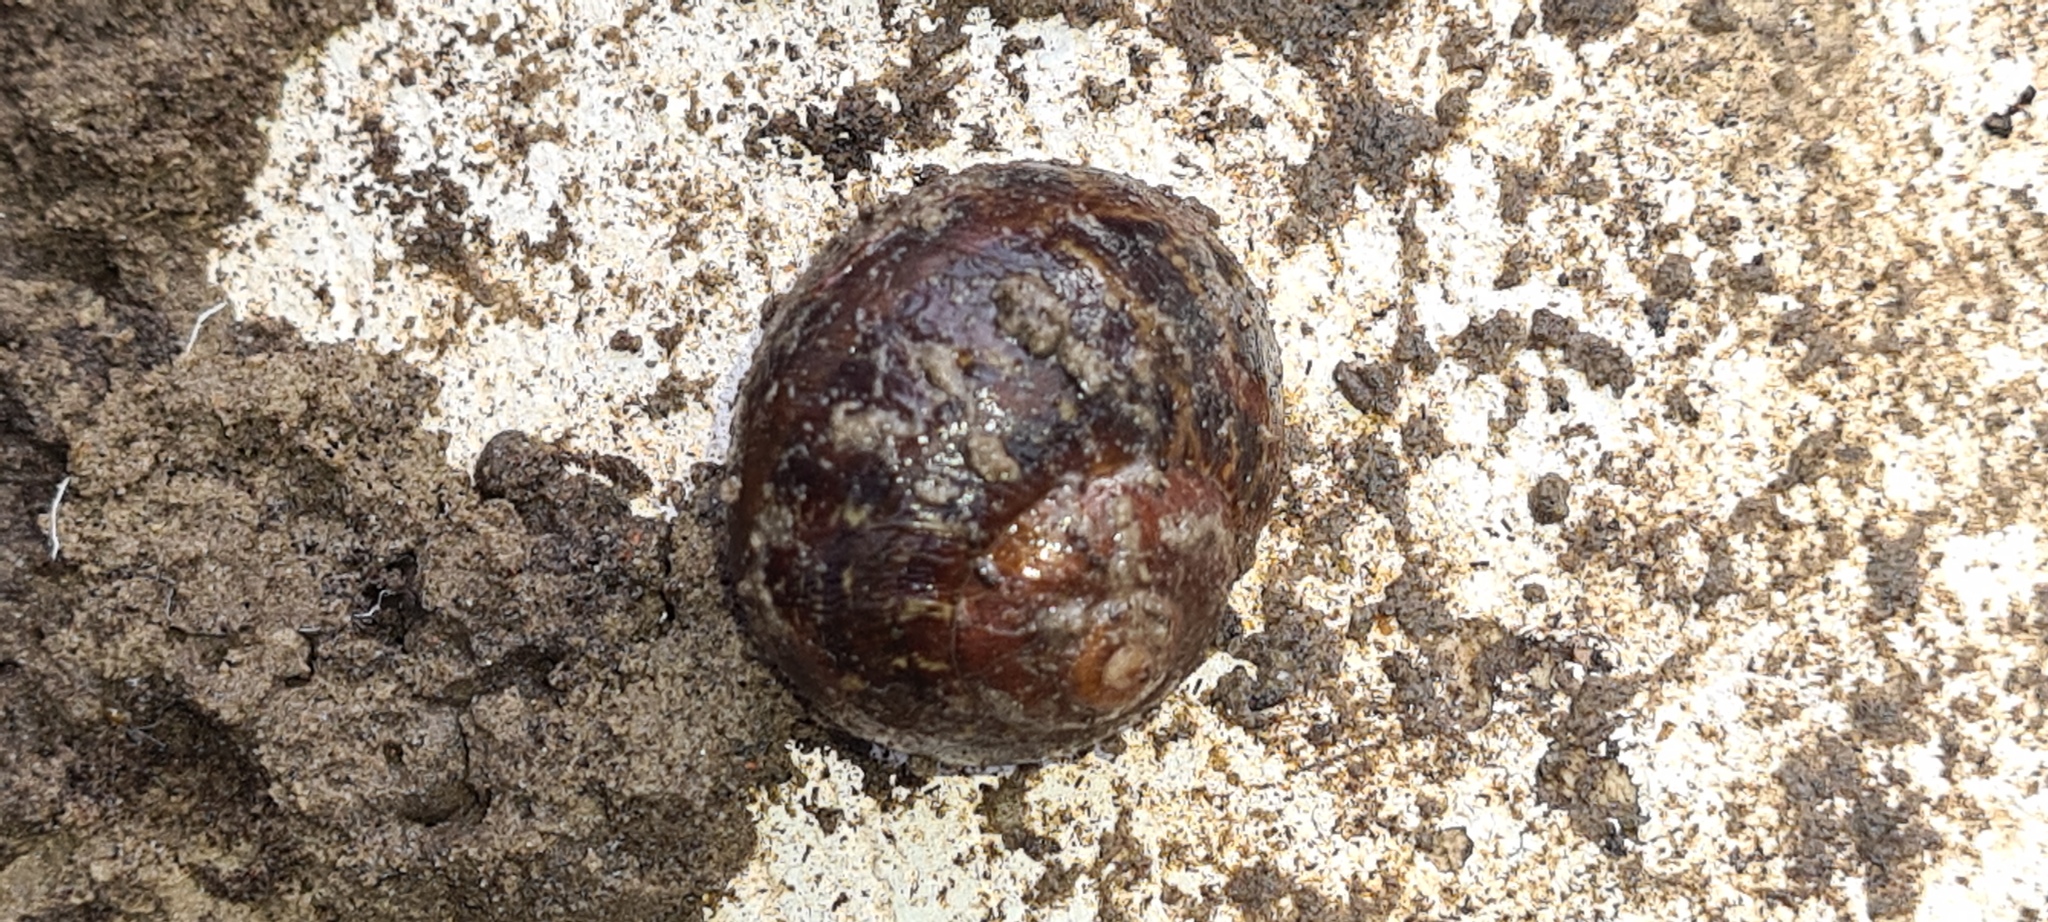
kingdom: Animalia
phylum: Mollusca
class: Gastropoda
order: Stylommatophora
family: Helicidae
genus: Cornu
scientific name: Cornu aspersum
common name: Brown garden snail
